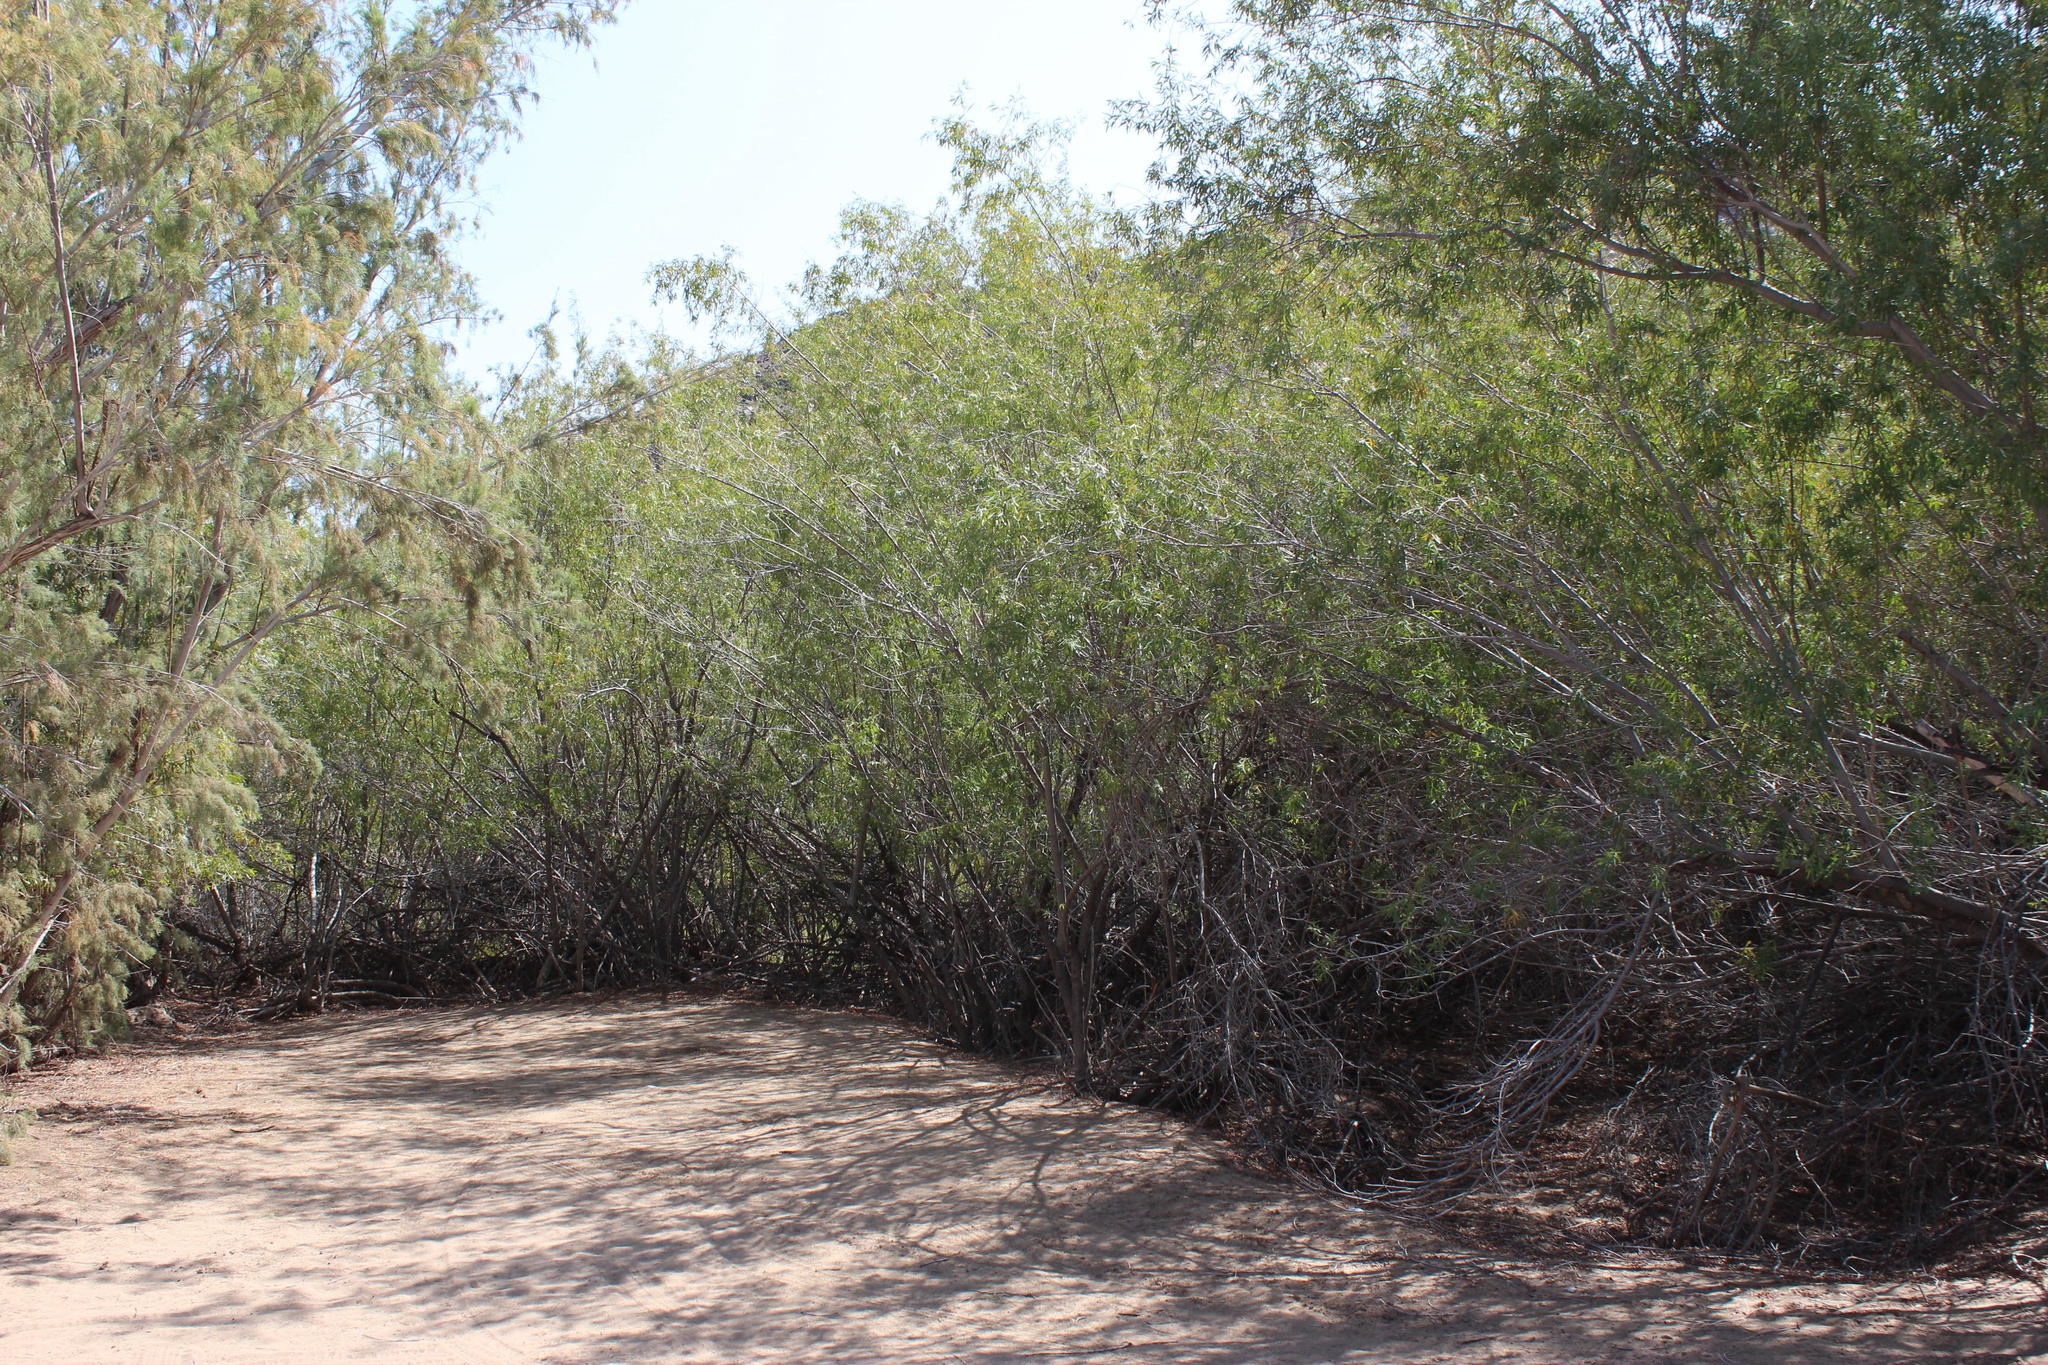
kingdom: Plantae
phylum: Tracheophyta
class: Magnoliopsida
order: Sapindales
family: Anacardiaceae
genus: Searsia
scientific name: Searsia pendulina
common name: White karee
